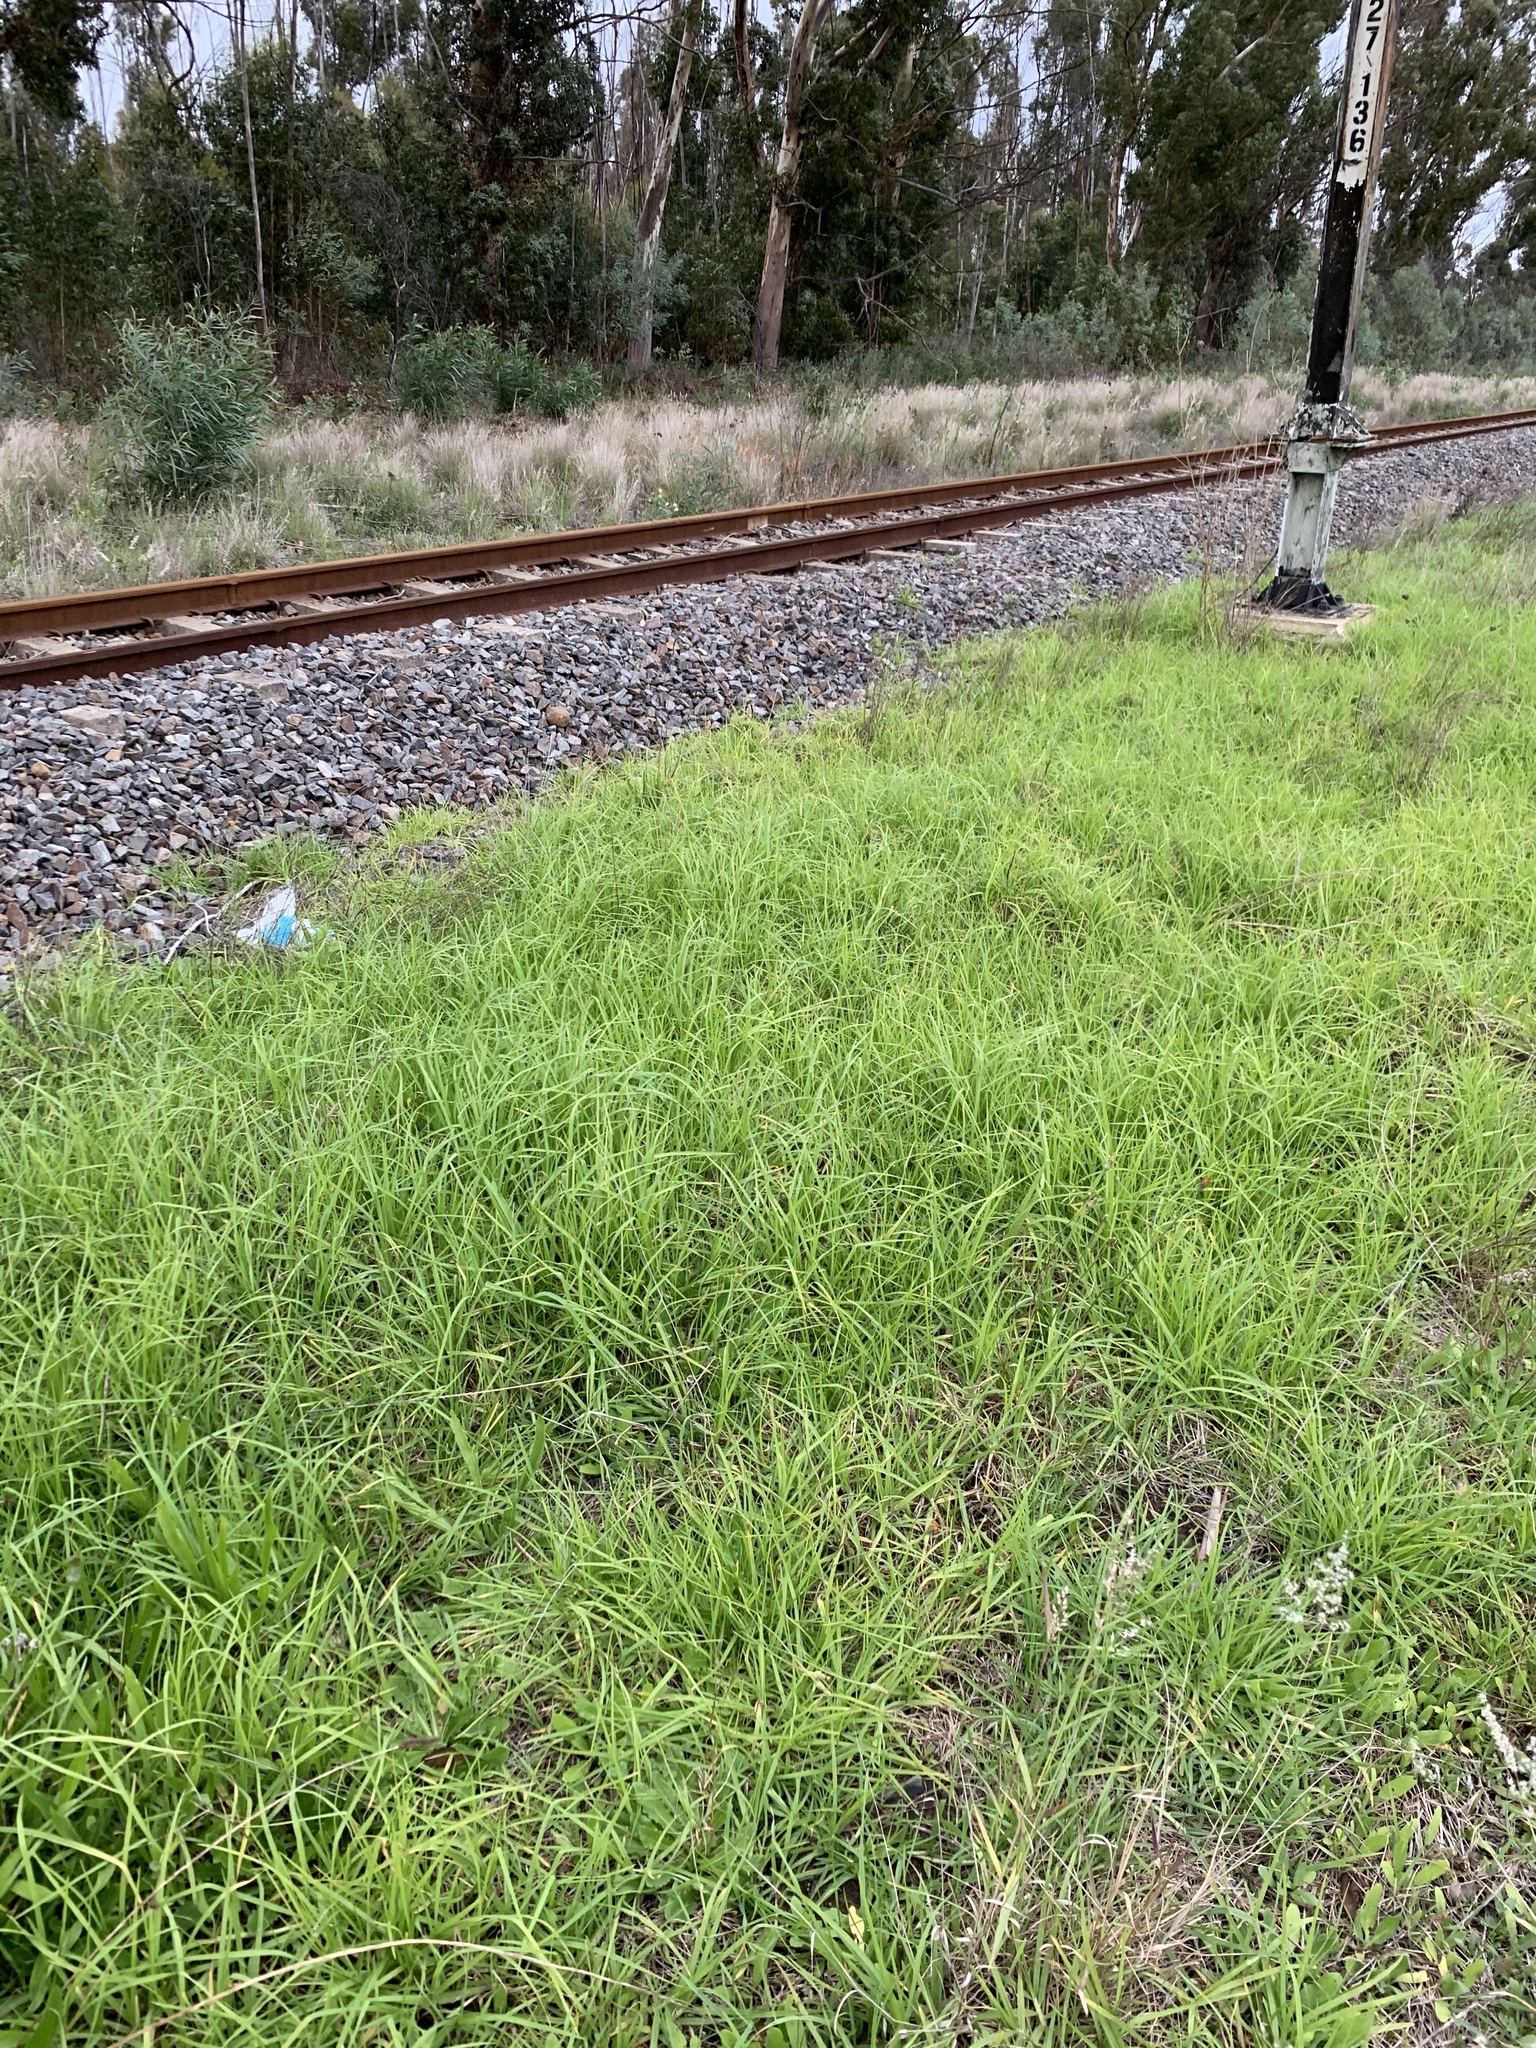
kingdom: Plantae
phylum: Tracheophyta
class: Liliopsida
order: Poales
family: Poaceae
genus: Cenchrus
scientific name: Cenchrus clandestinus
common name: Kikuyugrass
